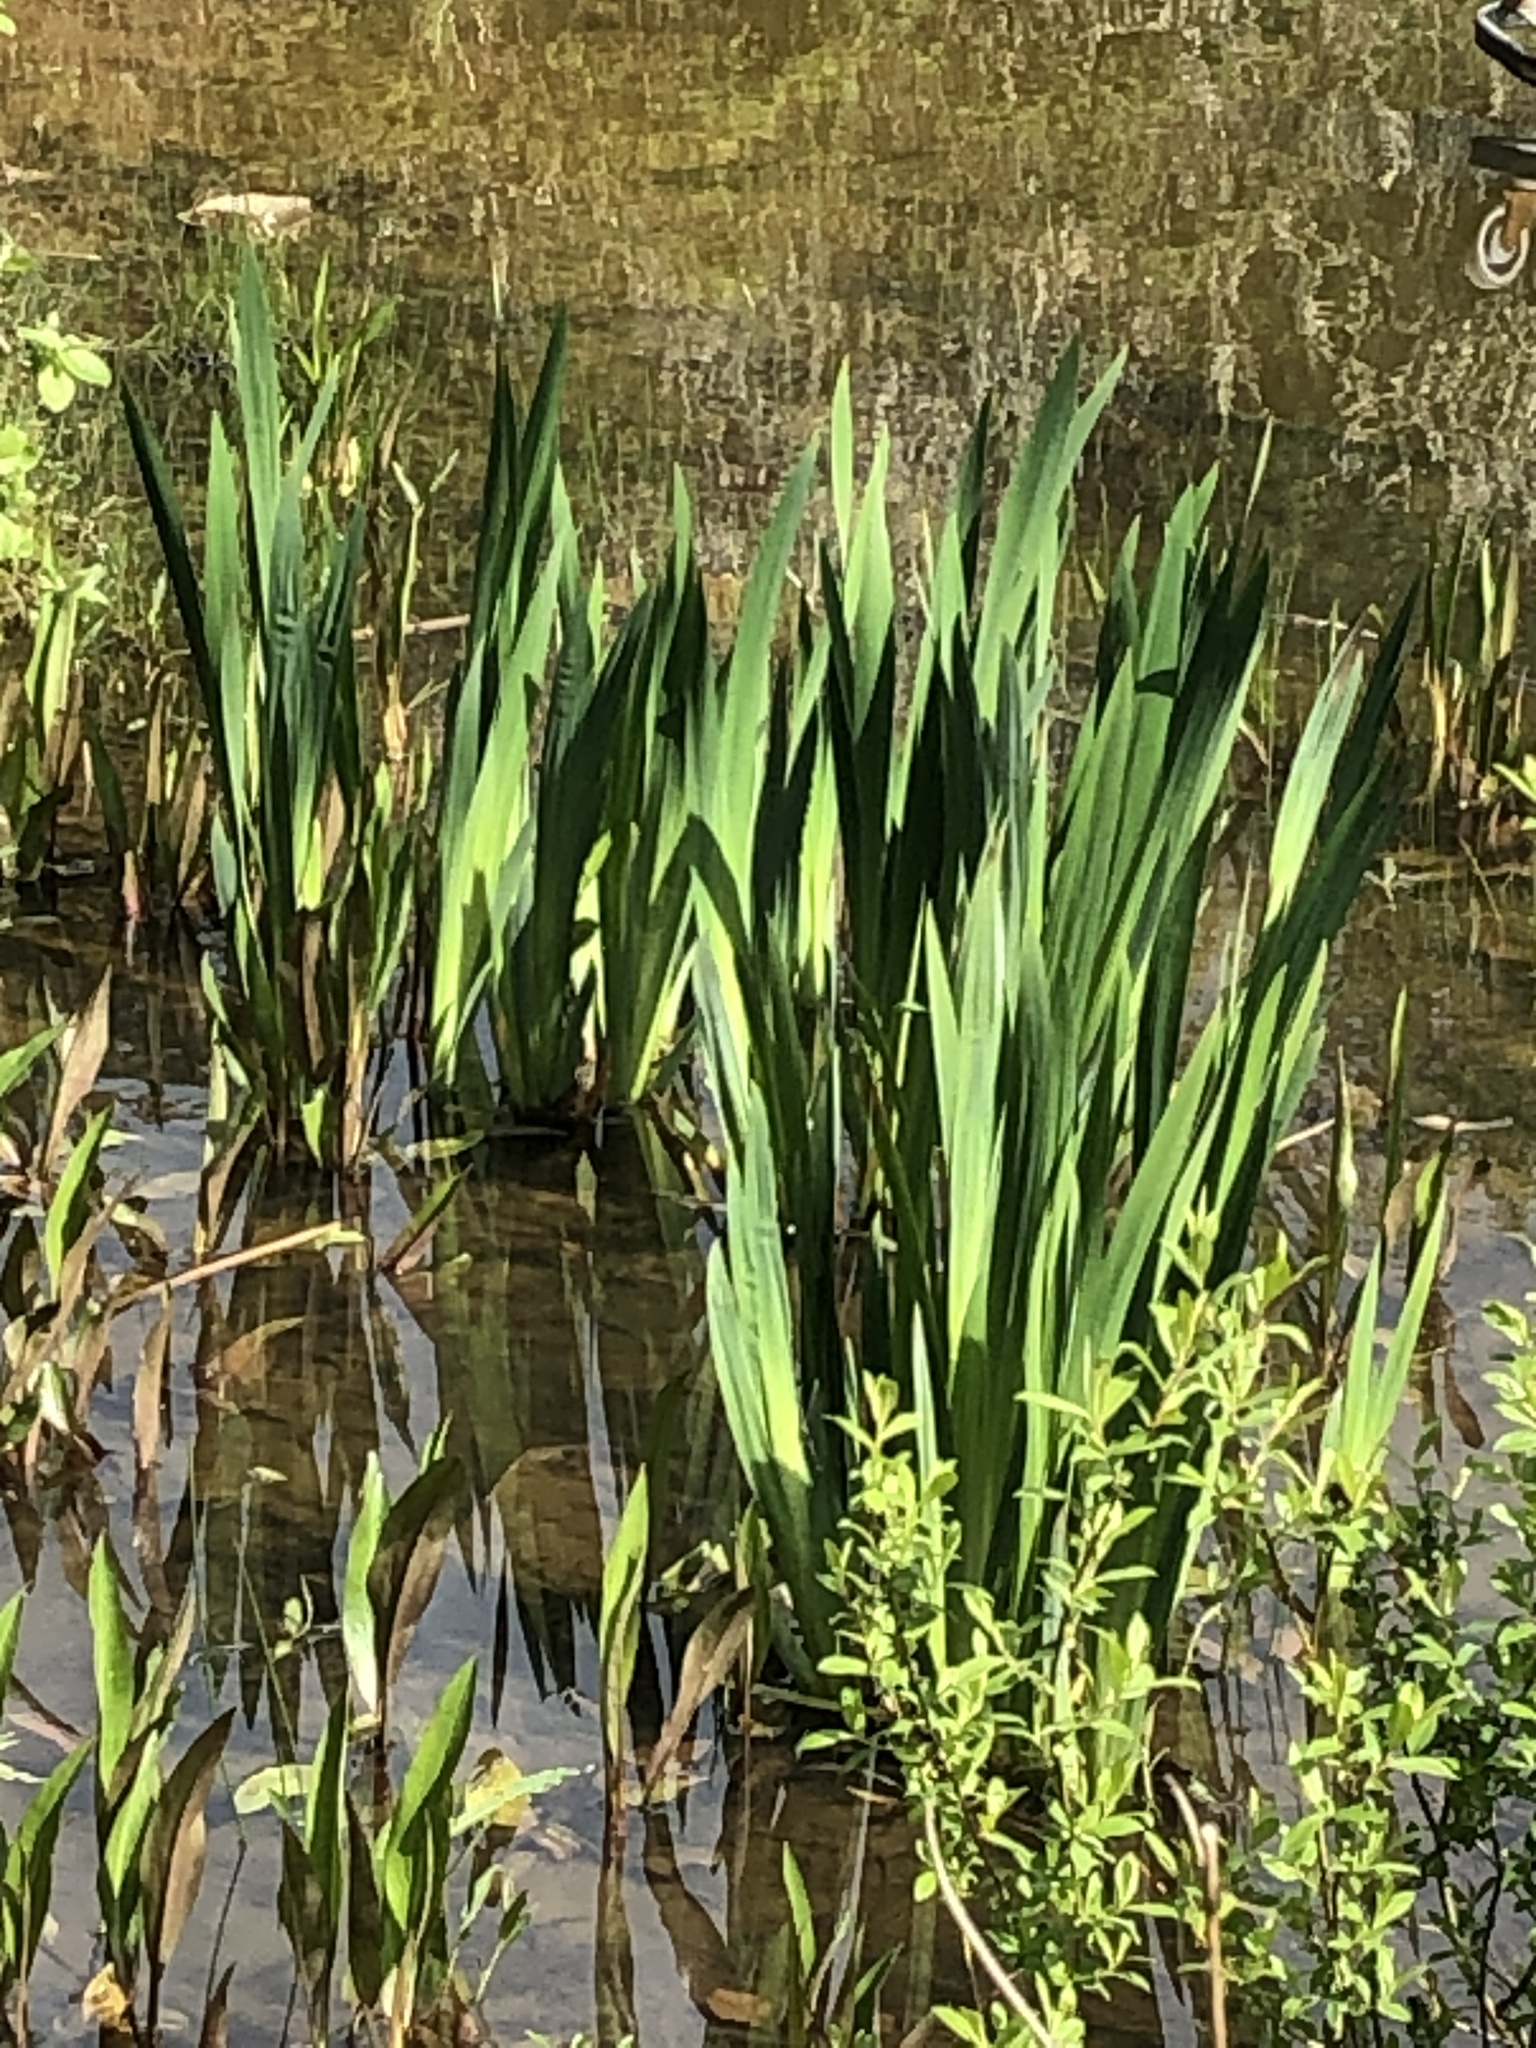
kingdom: Plantae
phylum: Tracheophyta
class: Liliopsida
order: Asparagales
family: Iridaceae
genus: Iris
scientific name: Iris pseudacorus
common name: Yellow flag
